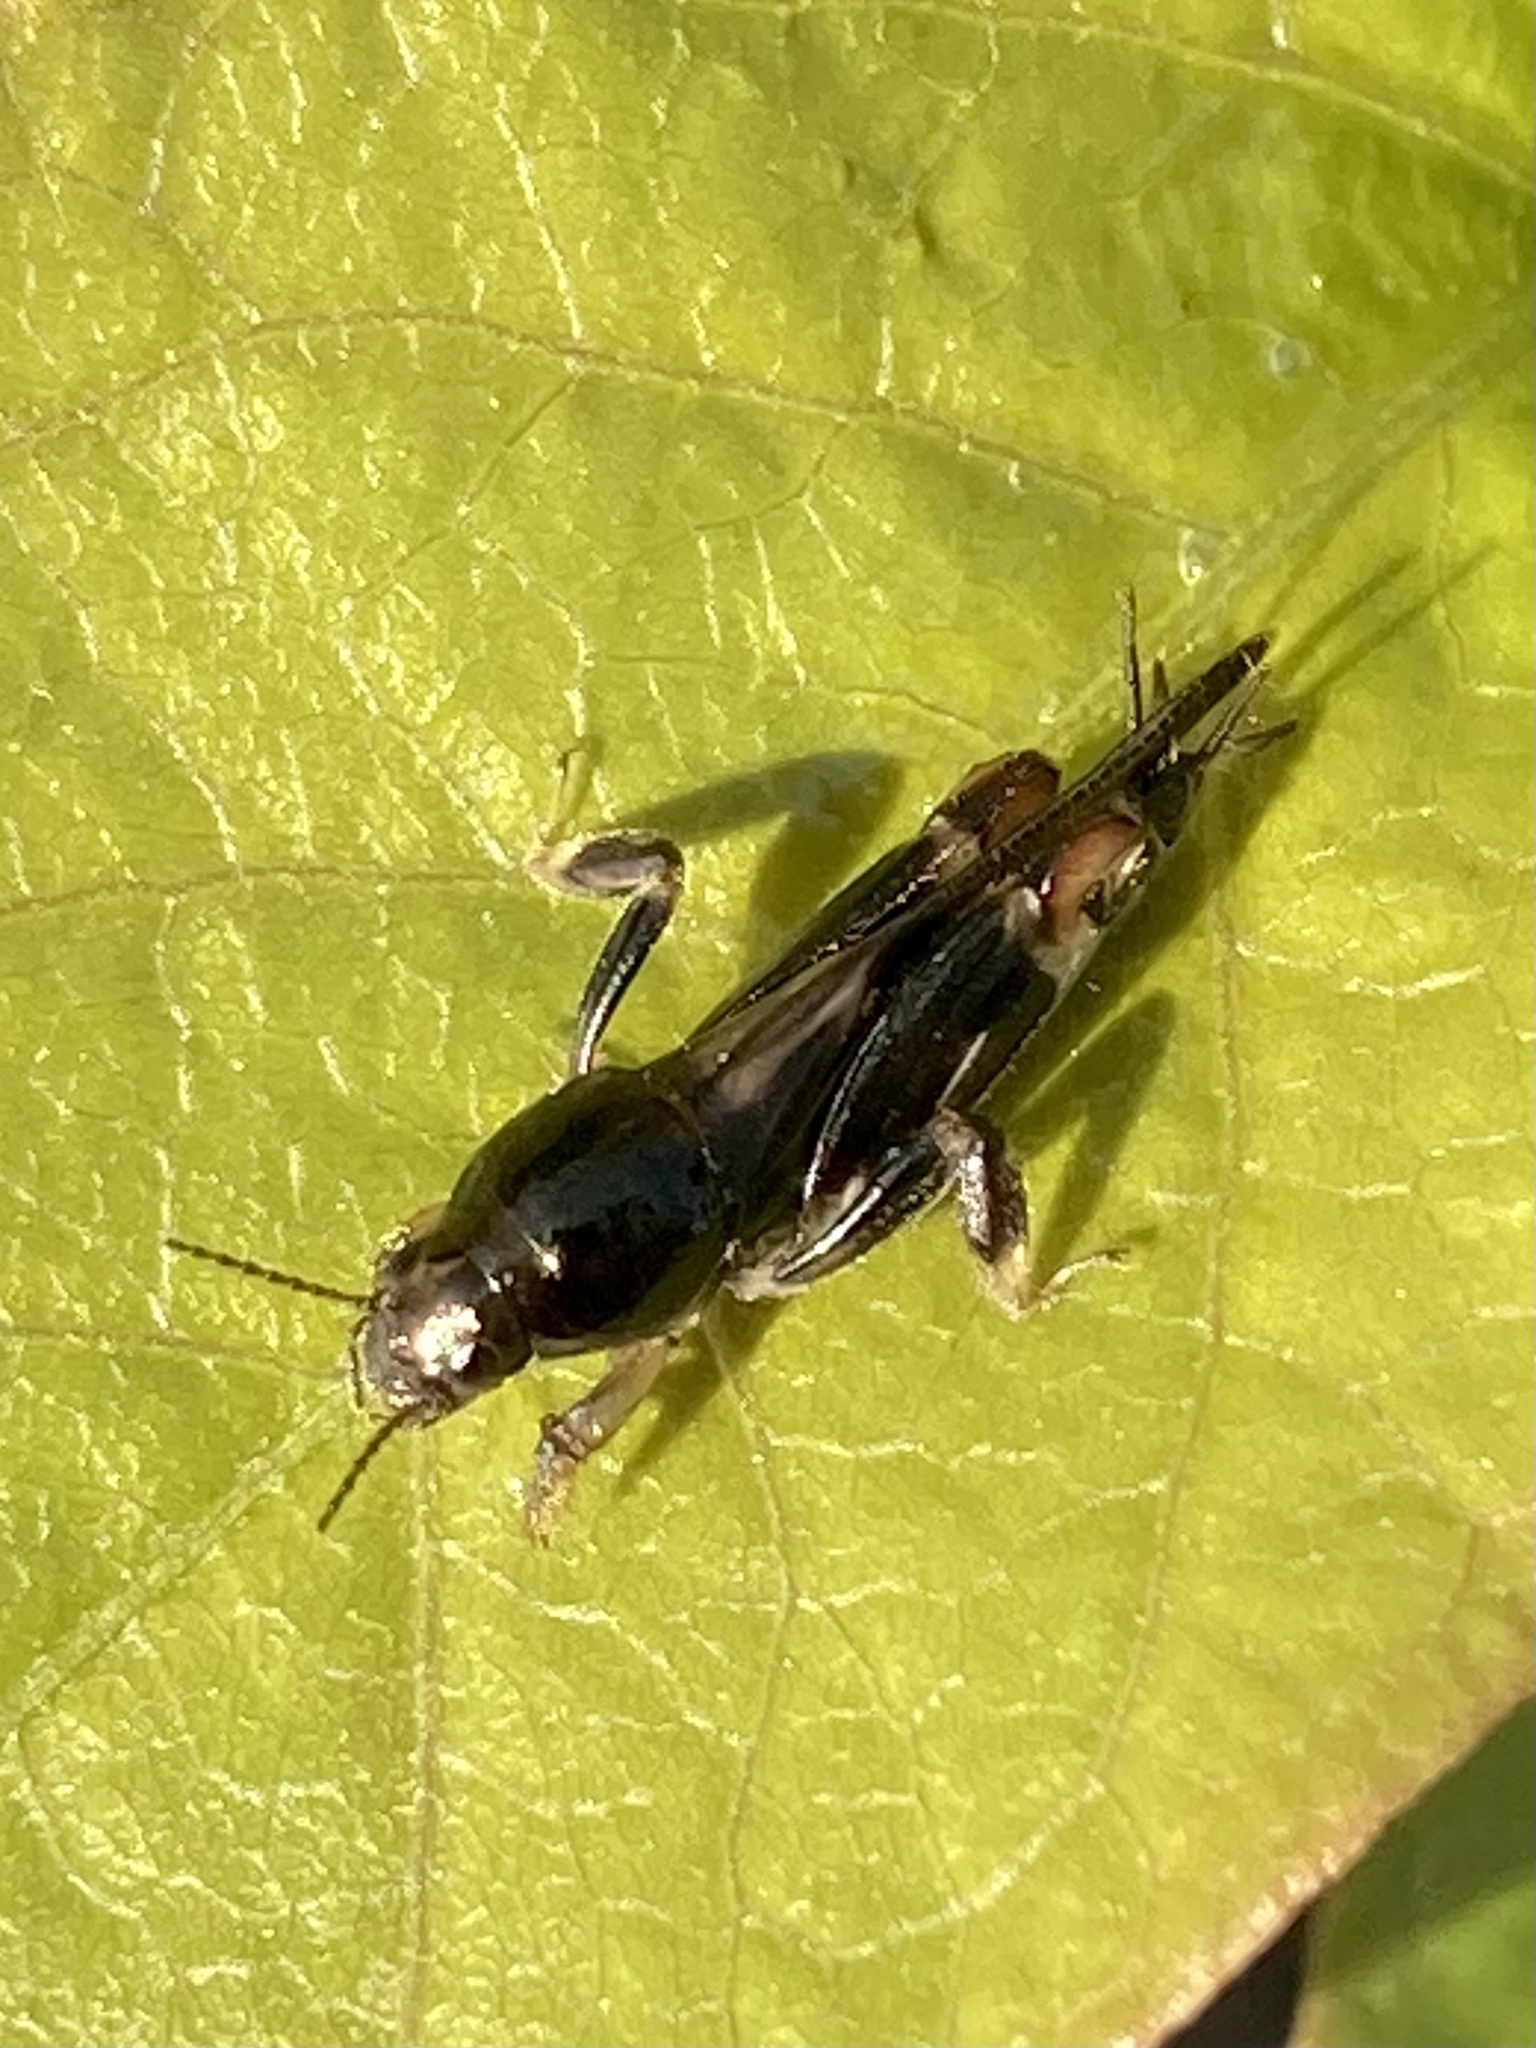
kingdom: Animalia
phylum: Arthropoda
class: Insecta
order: Orthoptera
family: Tridactylidae
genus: Neotridactylus
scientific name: Neotridactylus apicialis
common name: Larger pygmy locust
